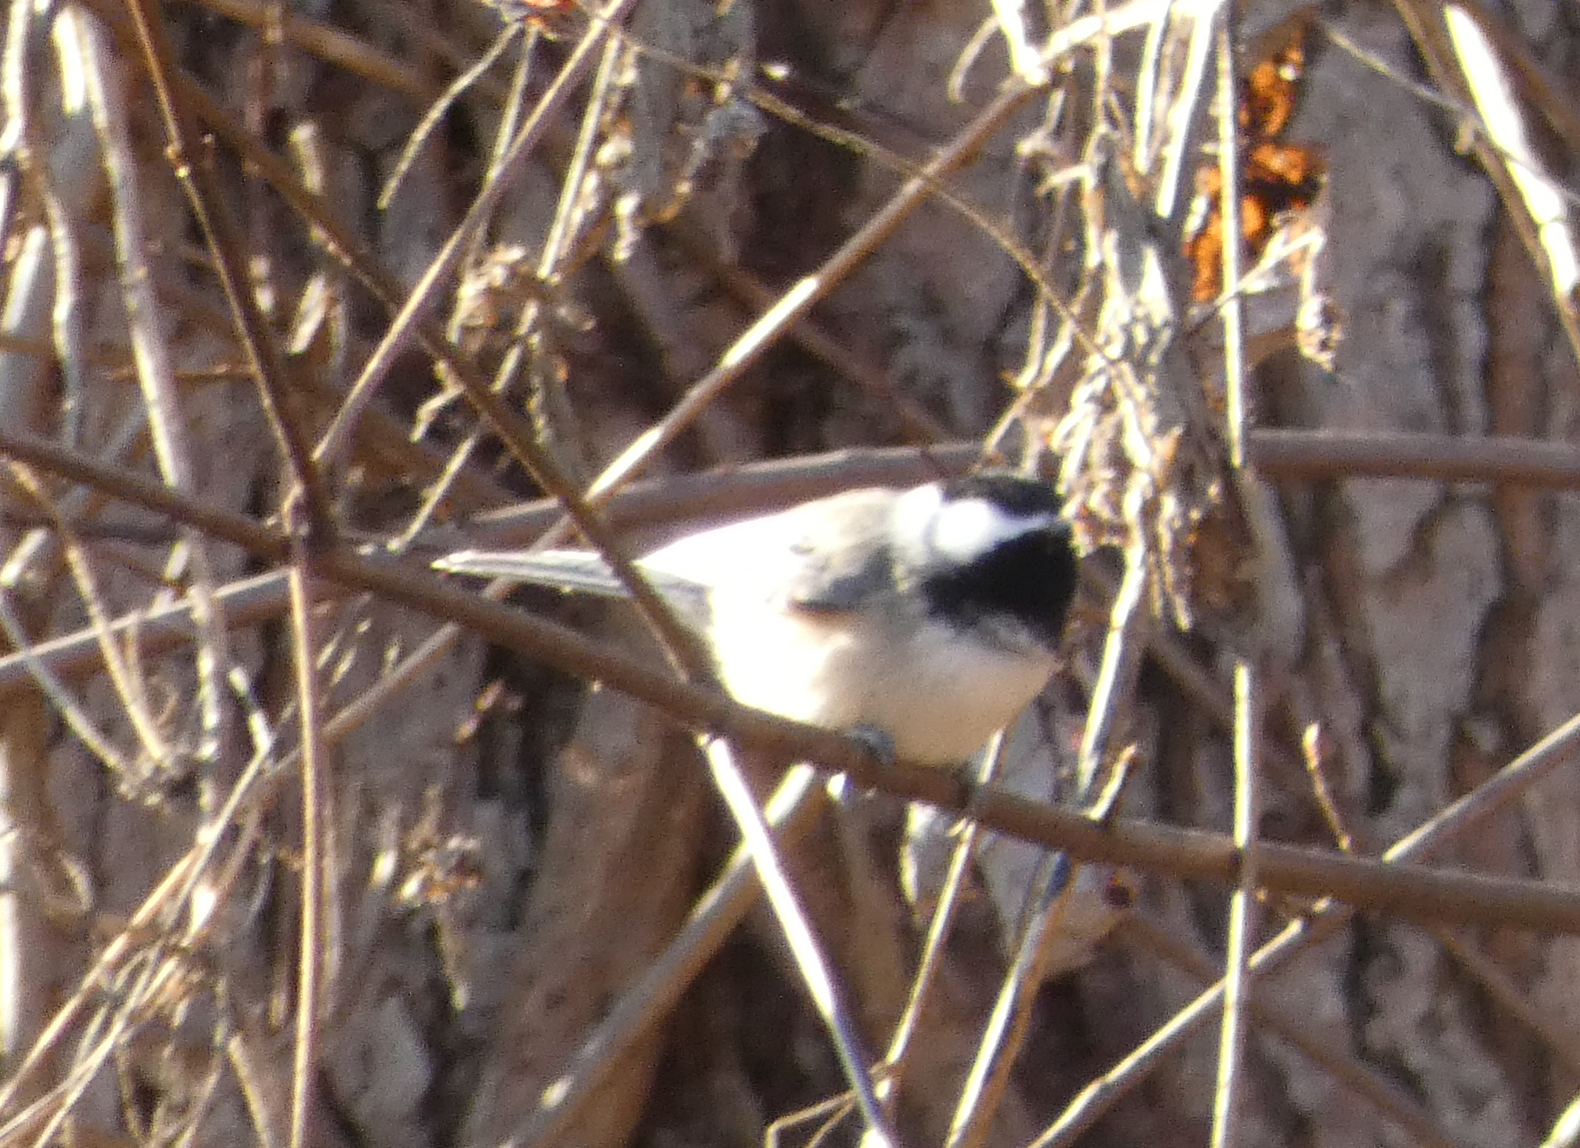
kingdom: Animalia
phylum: Chordata
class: Aves
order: Passeriformes
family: Paridae
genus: Poecile
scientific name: Poecile carolinensis
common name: Carolina chickadee
